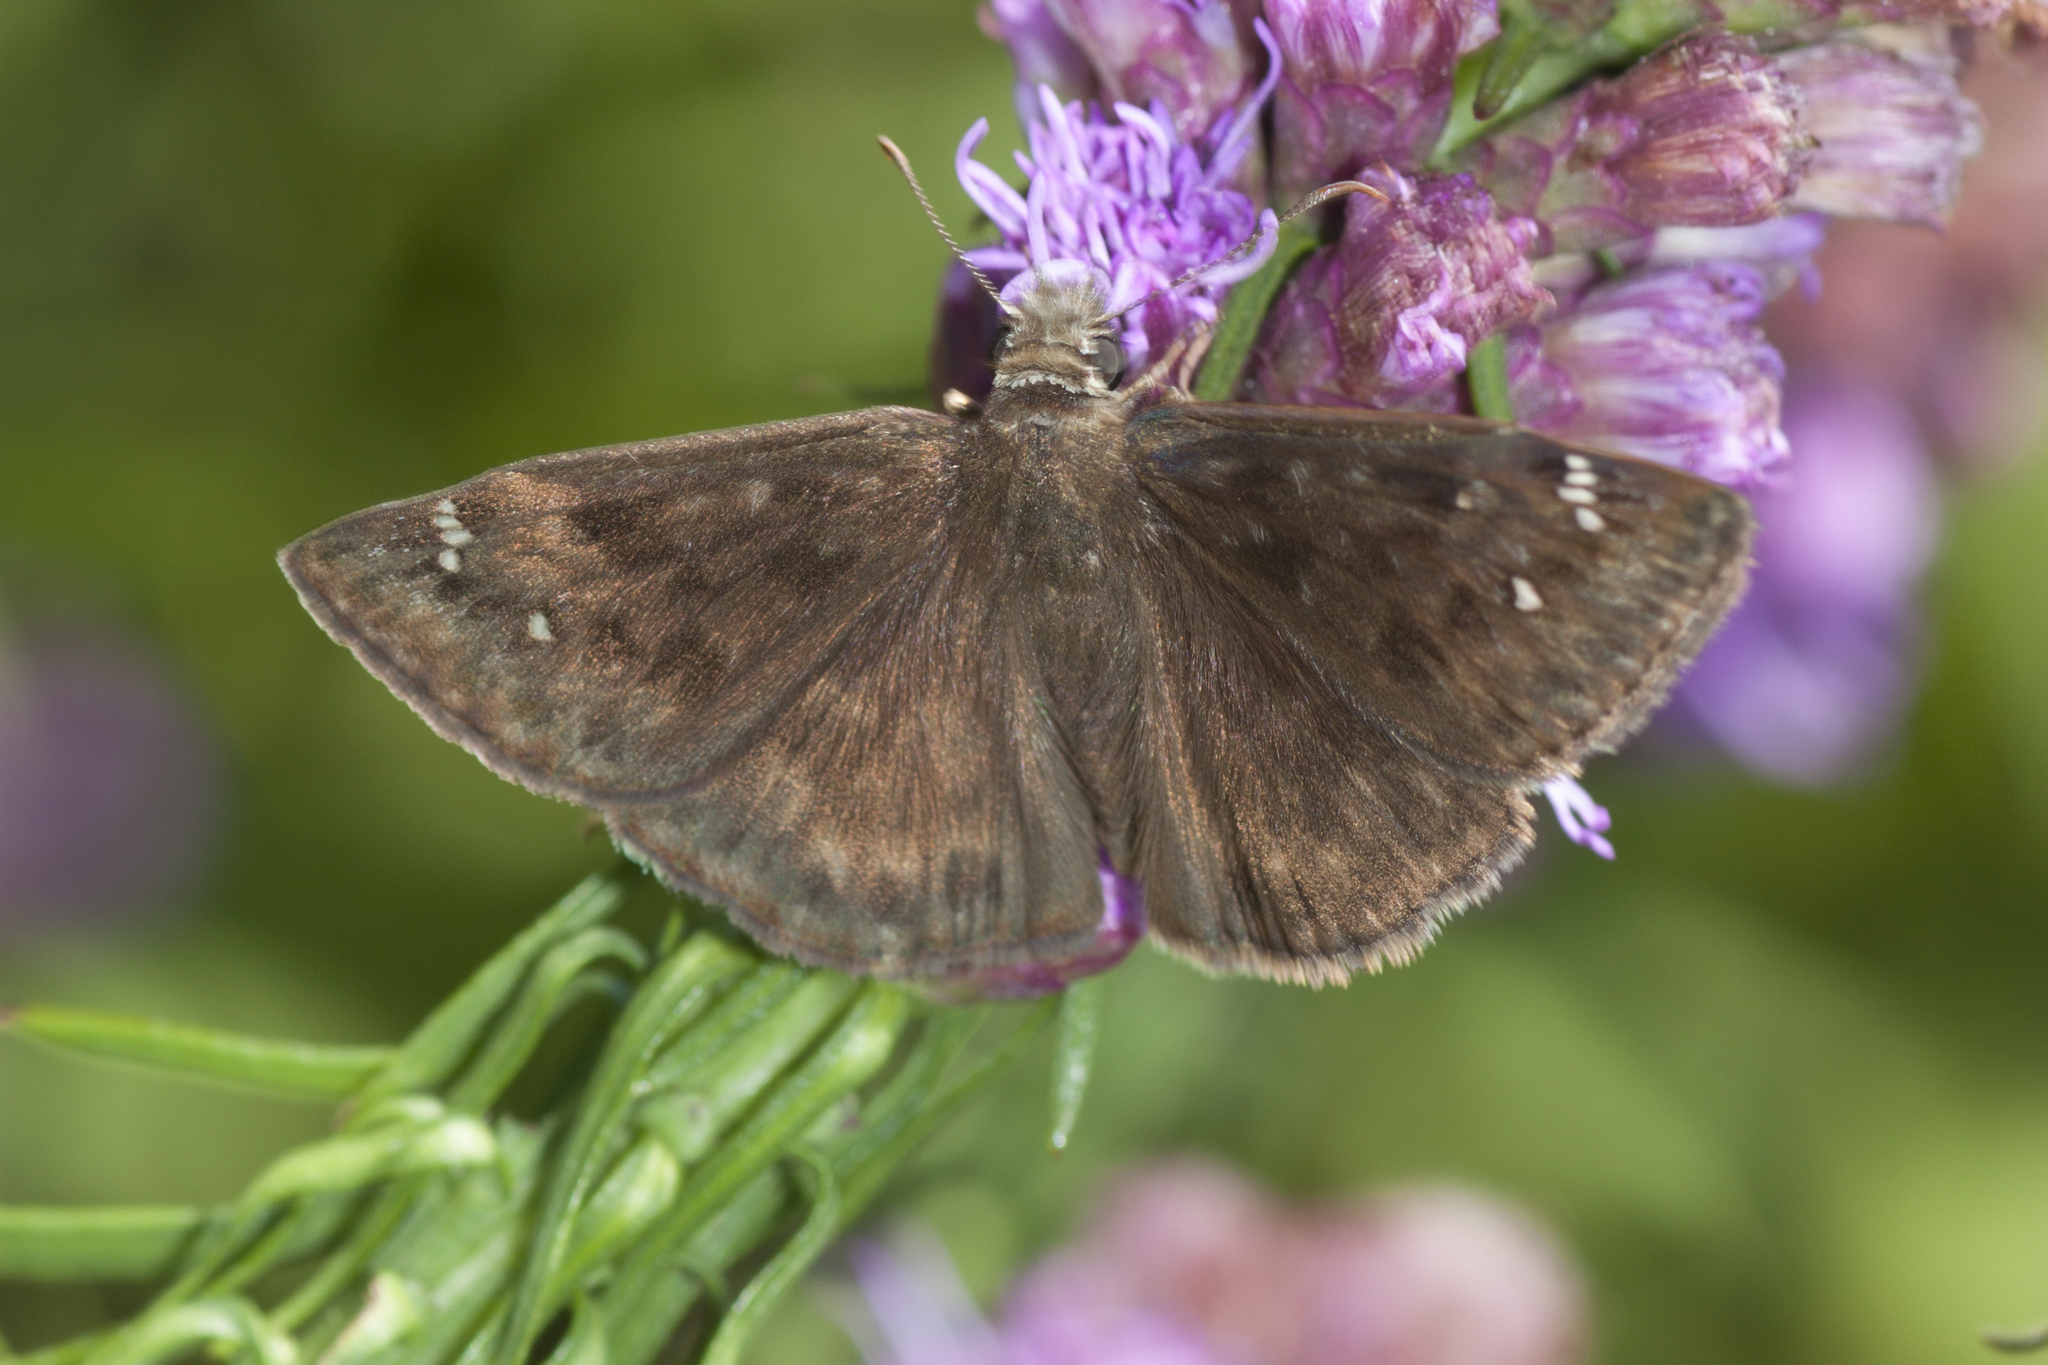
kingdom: Animalia
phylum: Arthropoda
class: Insecta
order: Lepidoptera
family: Hesperiidae
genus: Erynnis
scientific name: Erynnis horatius
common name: Horace's duskywing
